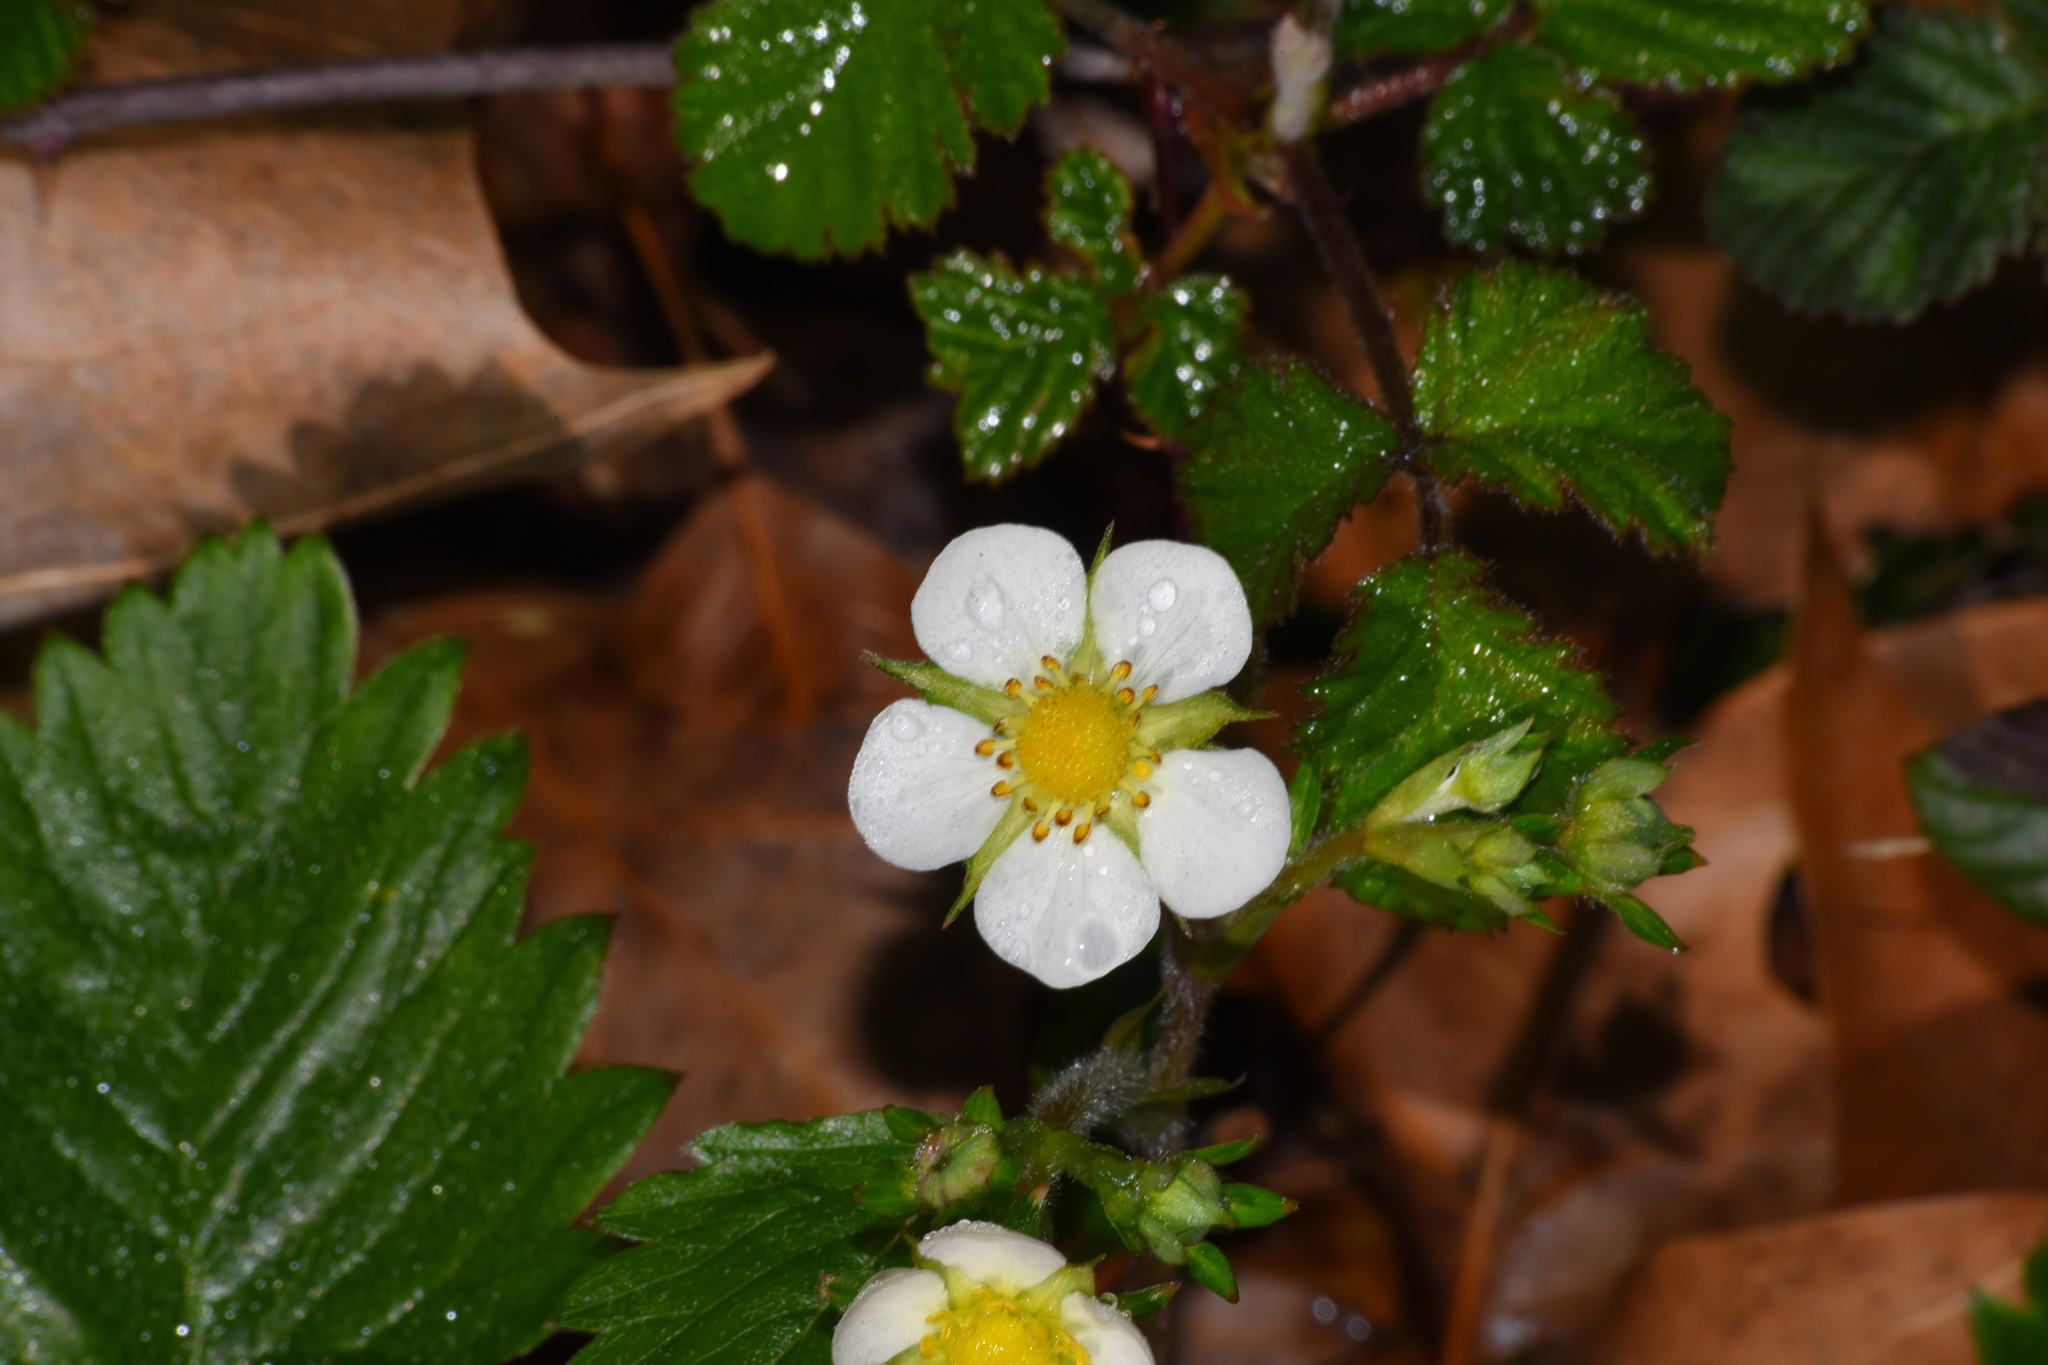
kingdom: Plantae
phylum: Tracheophyta
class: Magnoliopsida
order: Rosales
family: Rosaceae
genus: Fragaria
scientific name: Fragaria vesca
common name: Wild strawberry
